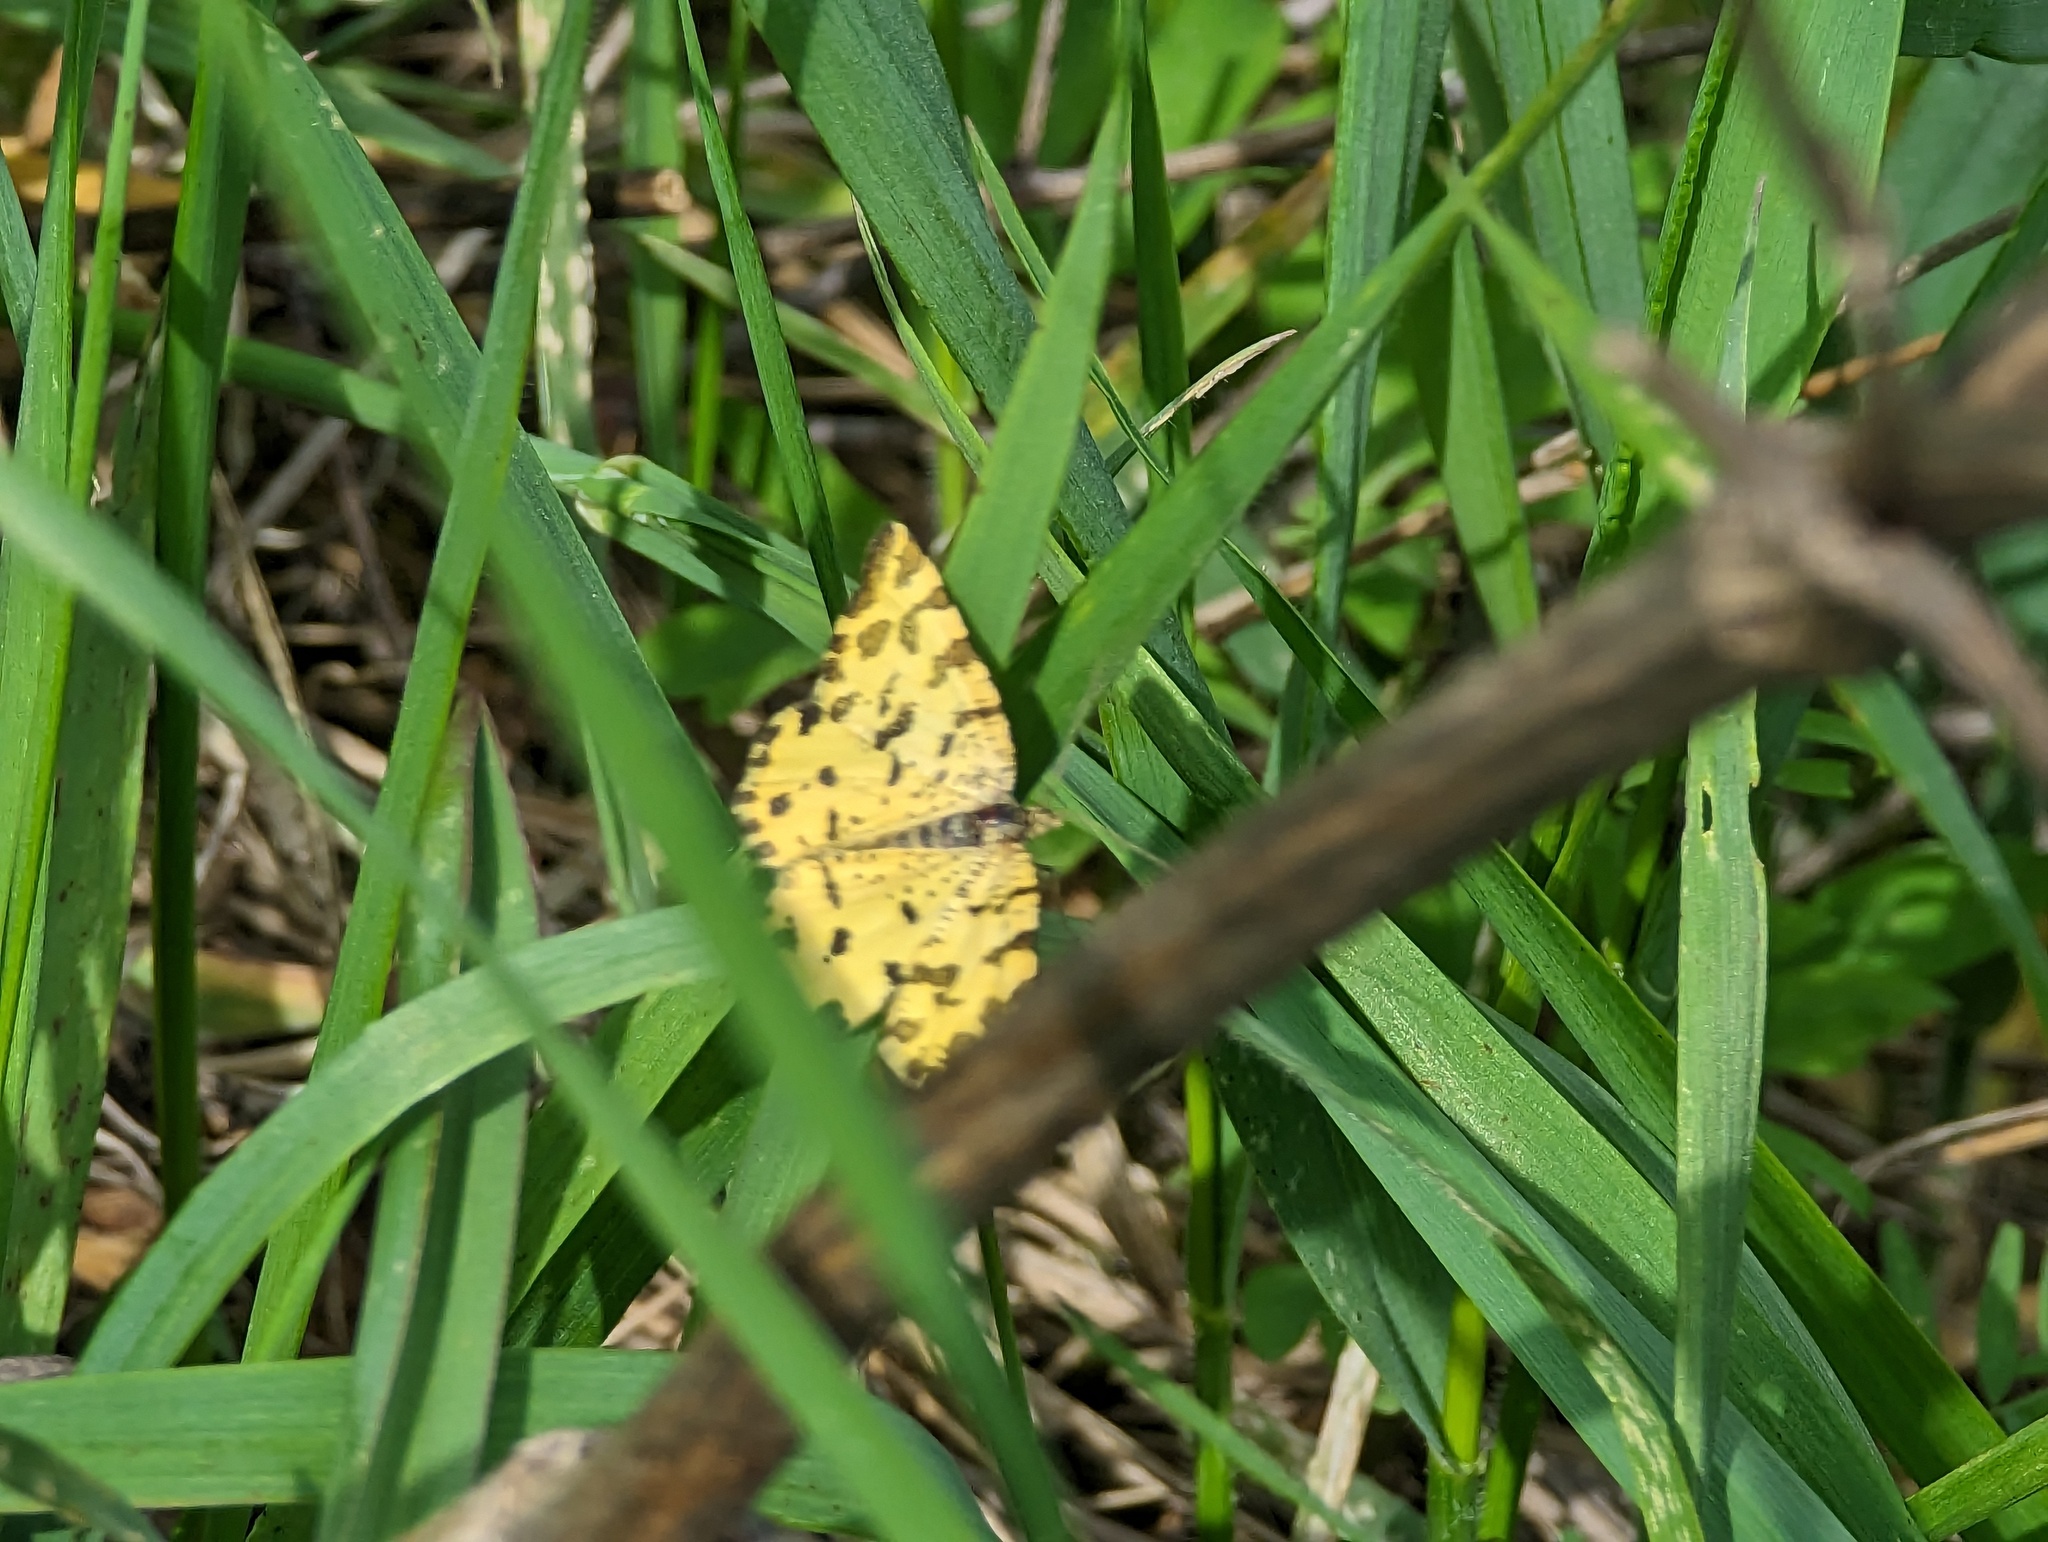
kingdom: Animalia
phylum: Arthropoda
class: Insecta
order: Lepidoptera
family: Geometridae
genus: Pseudopanthera
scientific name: Pseudopanthera macularia
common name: Speckled yellow
